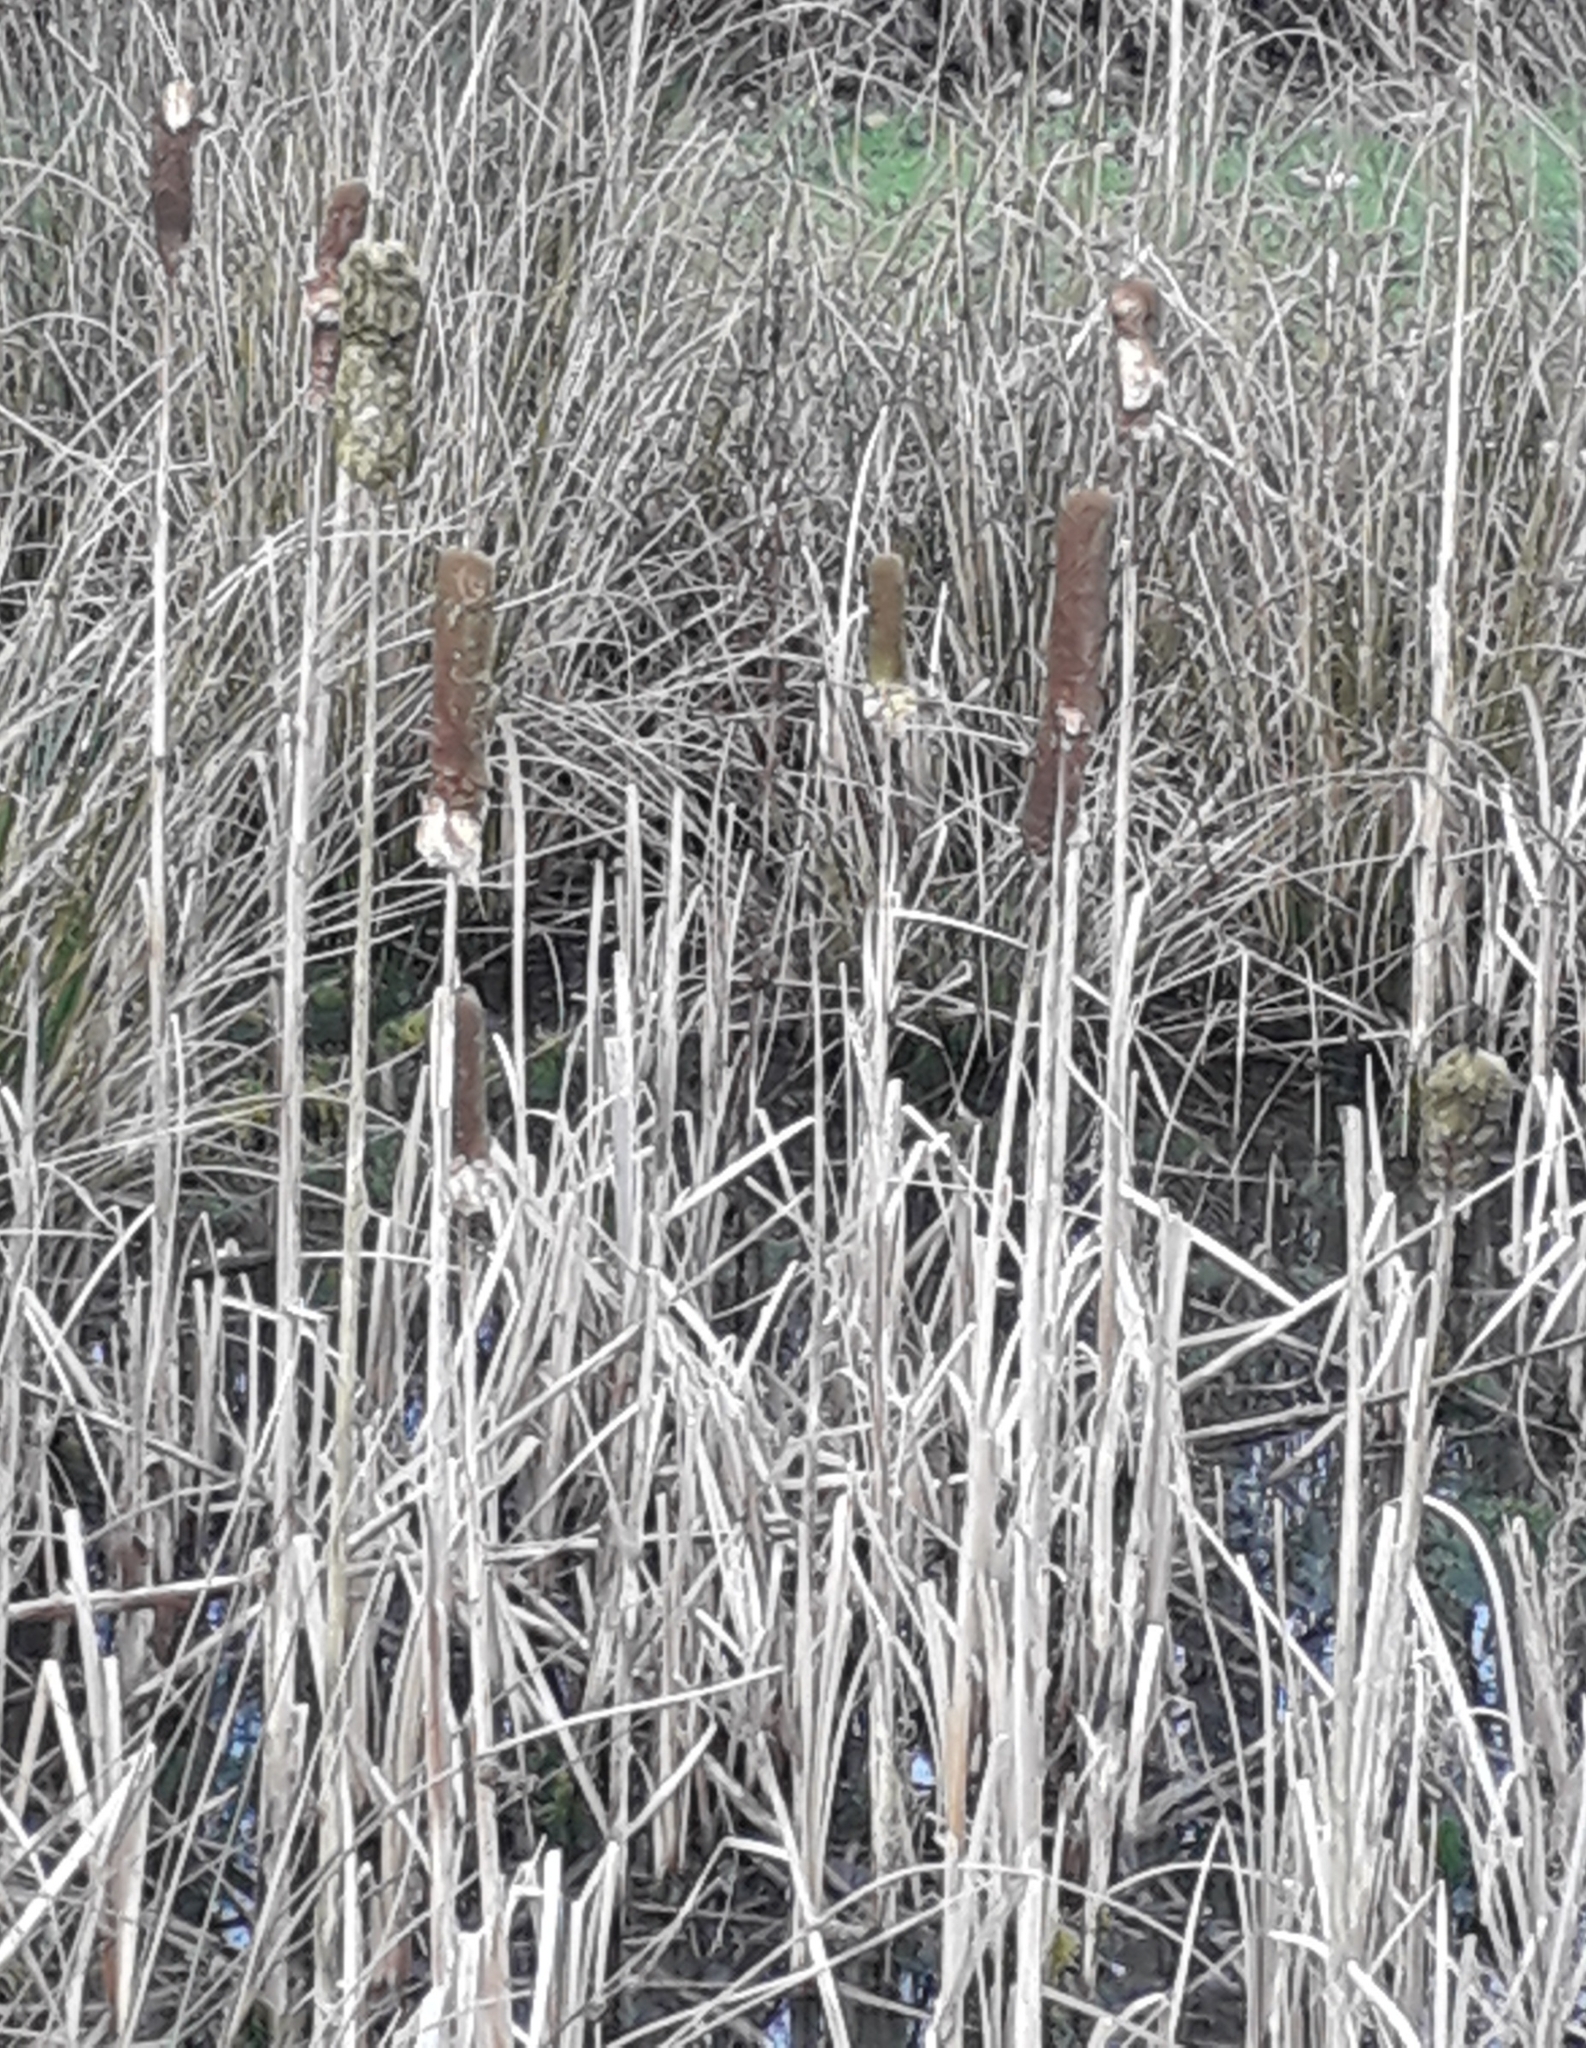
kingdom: Plantae
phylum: Tracheophyta
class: Liliopsida
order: Poales
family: Typhaceae
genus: Typha
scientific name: Typha latifolia
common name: Broadleaf cattail
